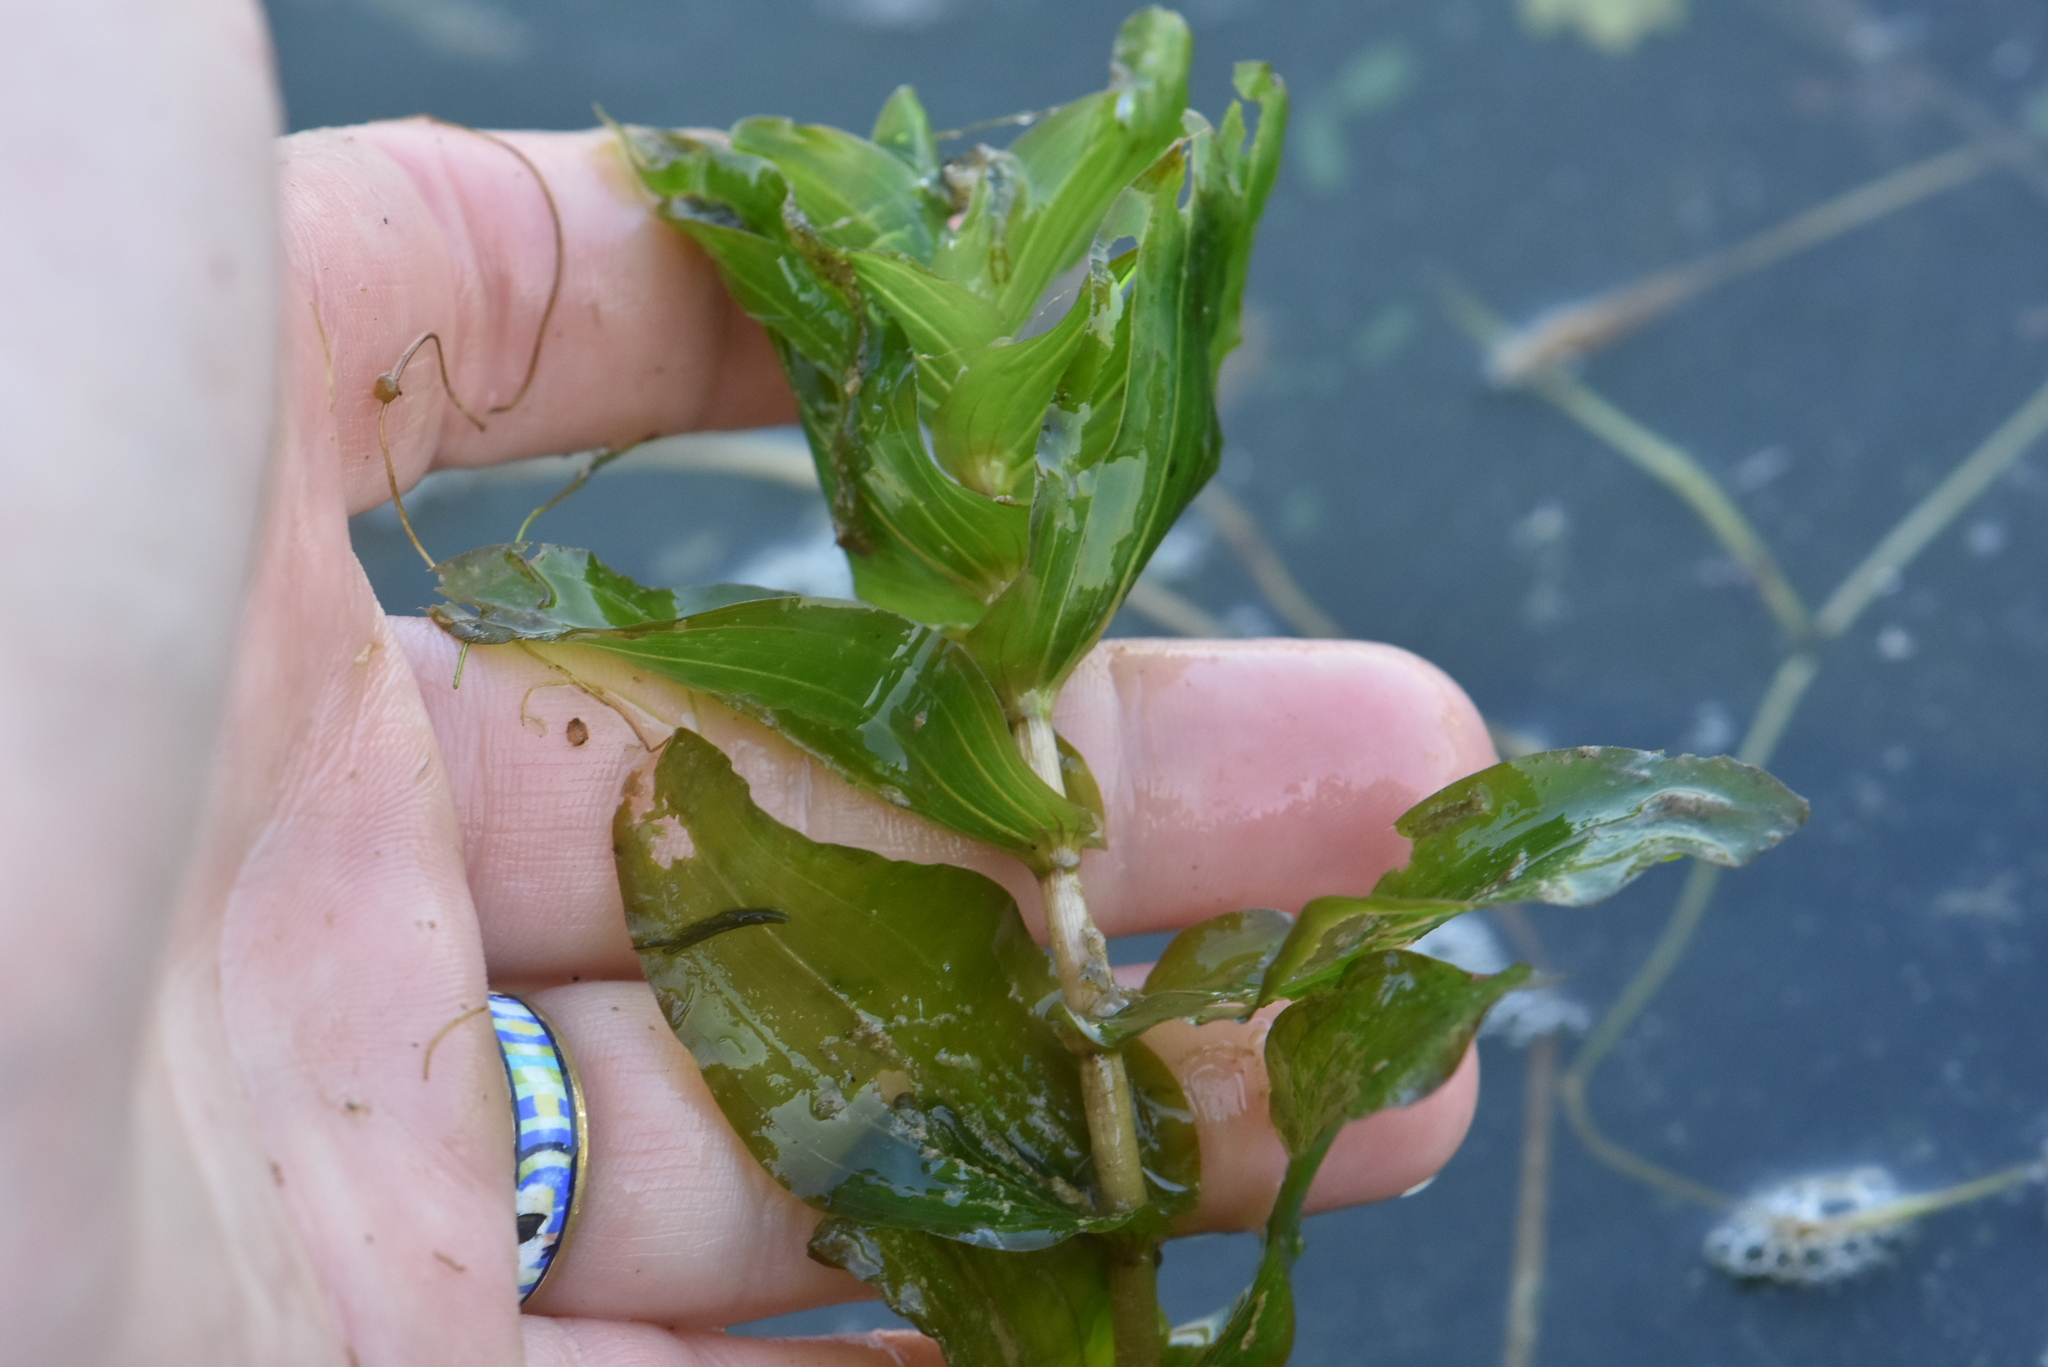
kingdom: Plantae
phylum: Tracheophyta
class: Liliopsida
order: Alismatales
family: Potamogetonaceae
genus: Potamogeton
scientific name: Potamogeton perfoliatus
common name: Perfoliate pondweed
